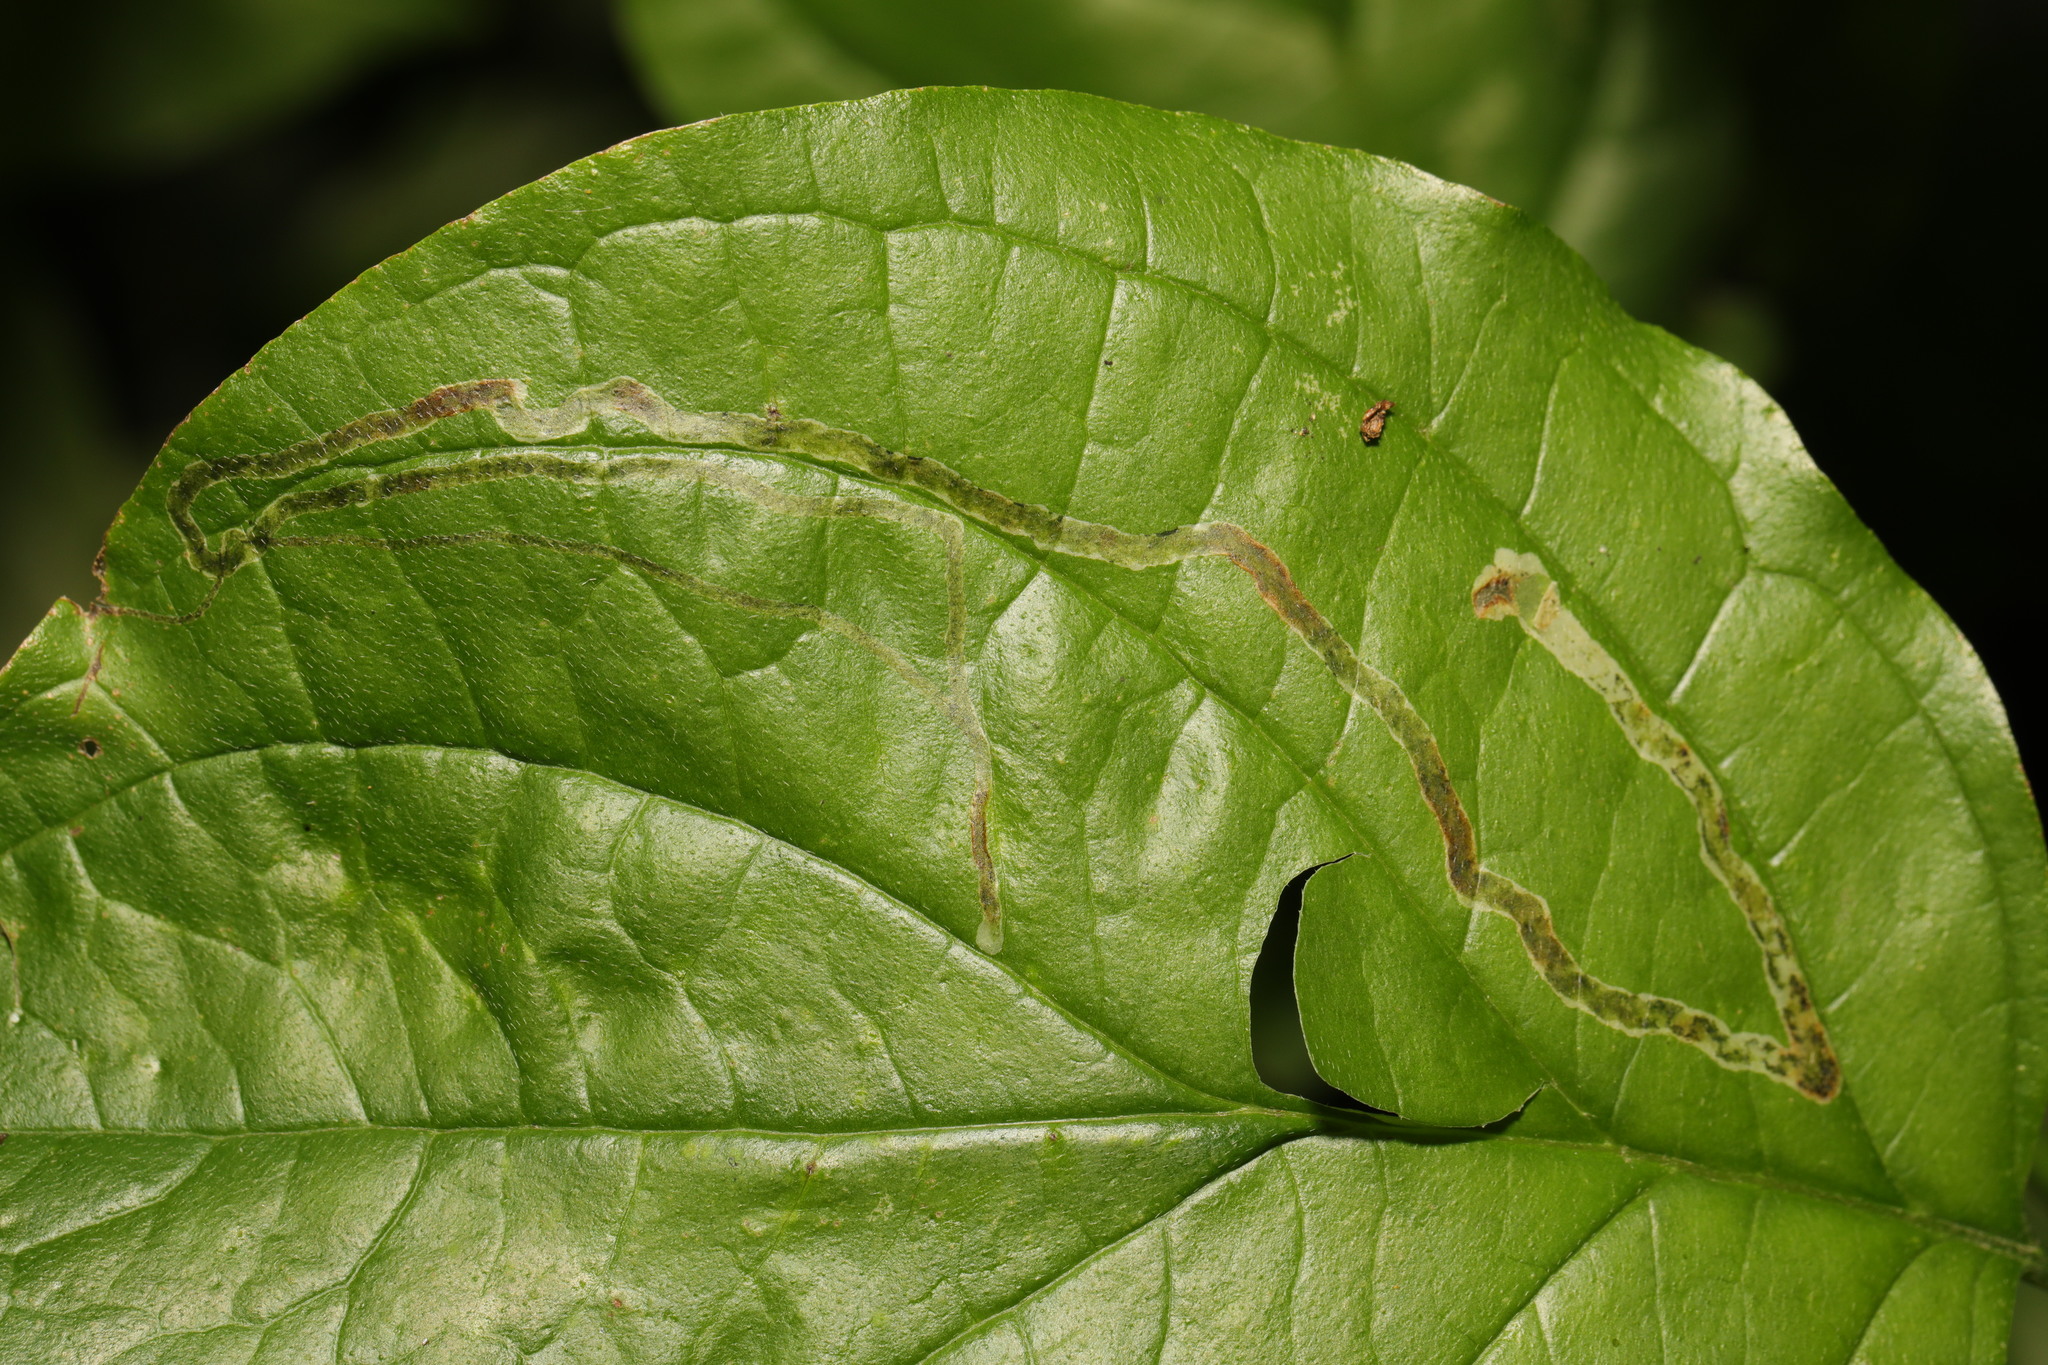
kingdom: Plantae
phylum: Tracheophyta
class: Magnoliopsida
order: Cornales
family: Cornaceae
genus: Cornus
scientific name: Cornus sanguinea
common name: Dogwood
